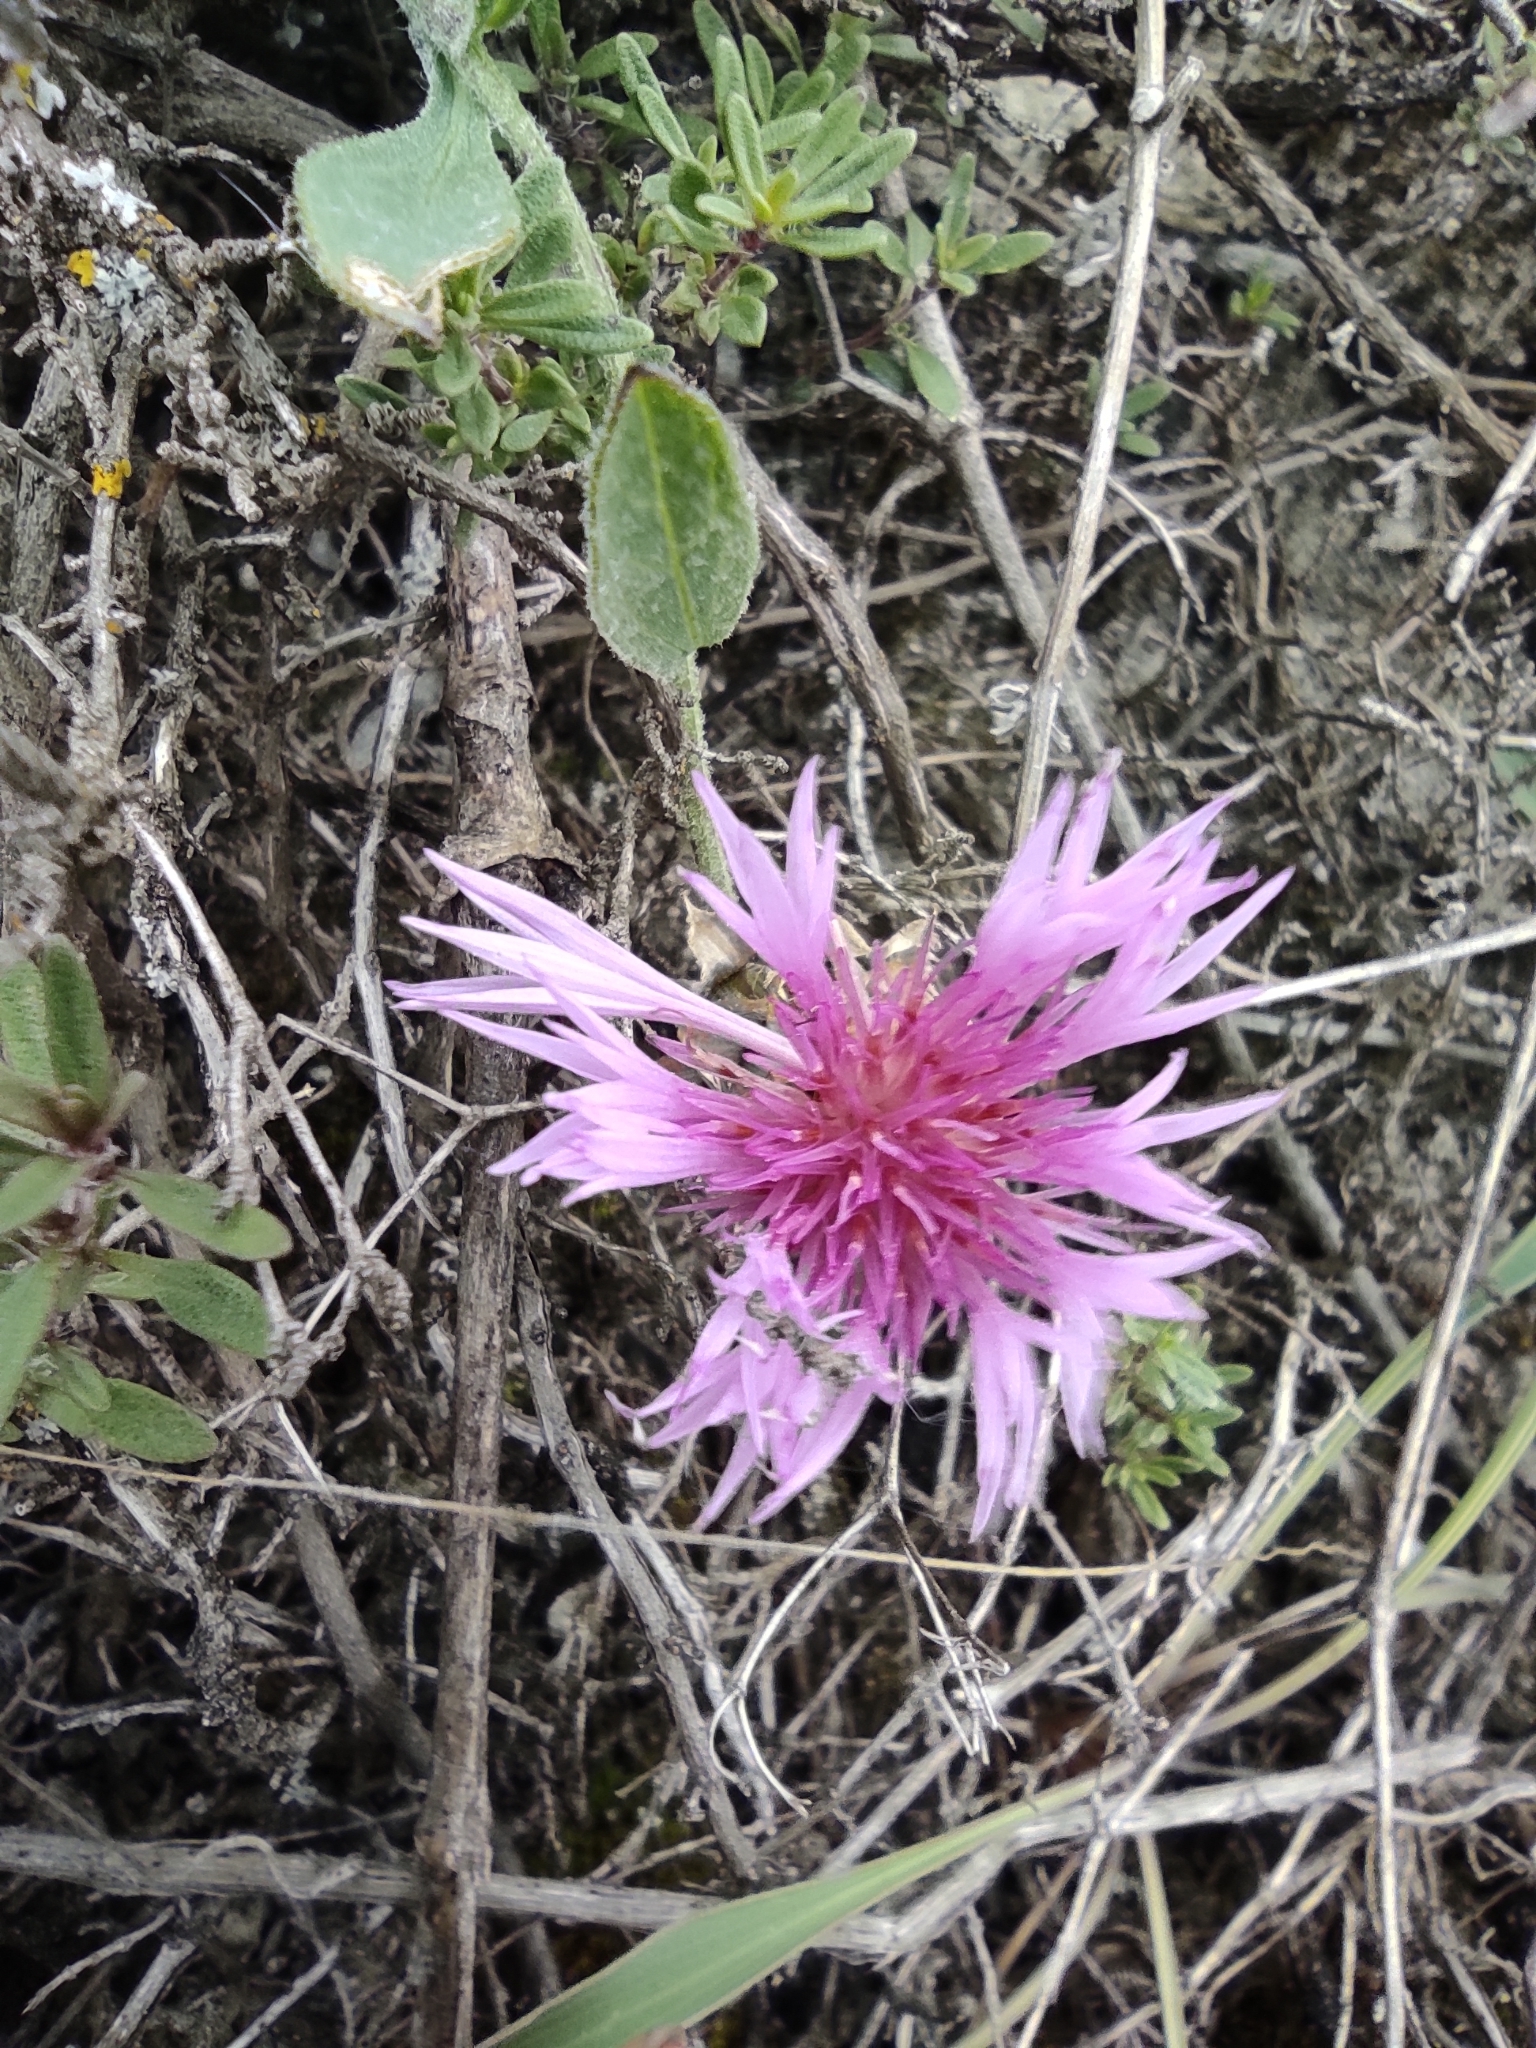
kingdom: Plantae
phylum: Tracheophyta
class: Magnoliopsida
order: Asterales
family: Asteraceae
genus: Psephellus
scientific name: Psephellus marschallianus
